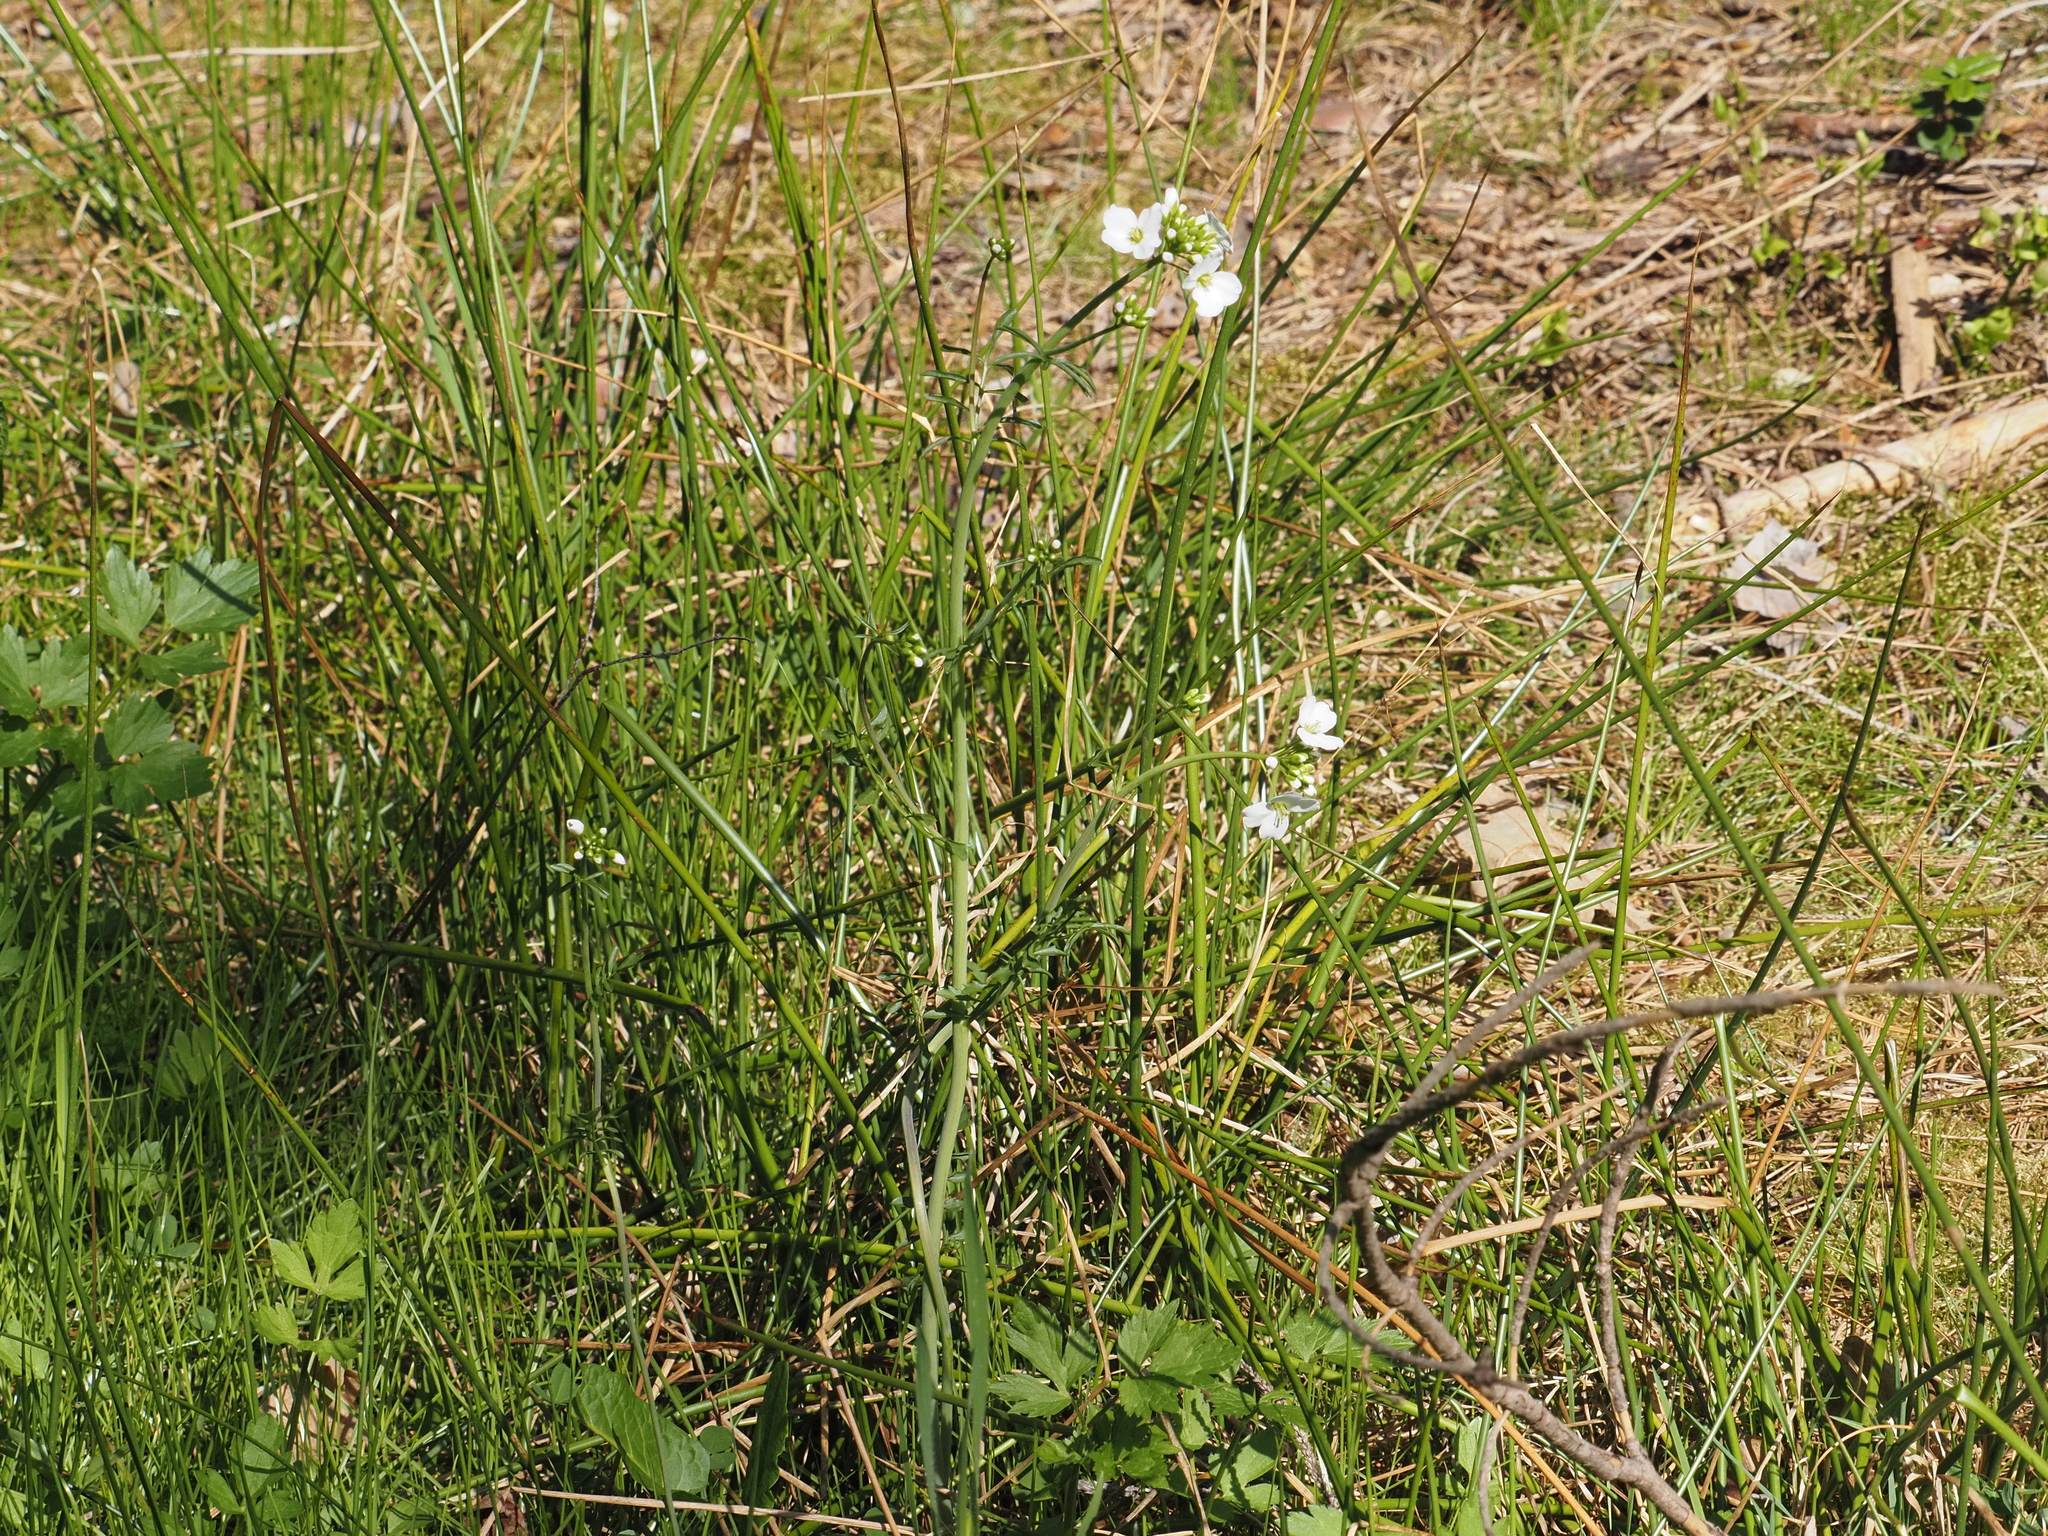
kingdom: Plantae
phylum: Tracheophyta
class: Magnoliopsida
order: Brassicales
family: Brassicaceae
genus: Cardamine
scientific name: Cardamine pratensis
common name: Cuckoo flower
